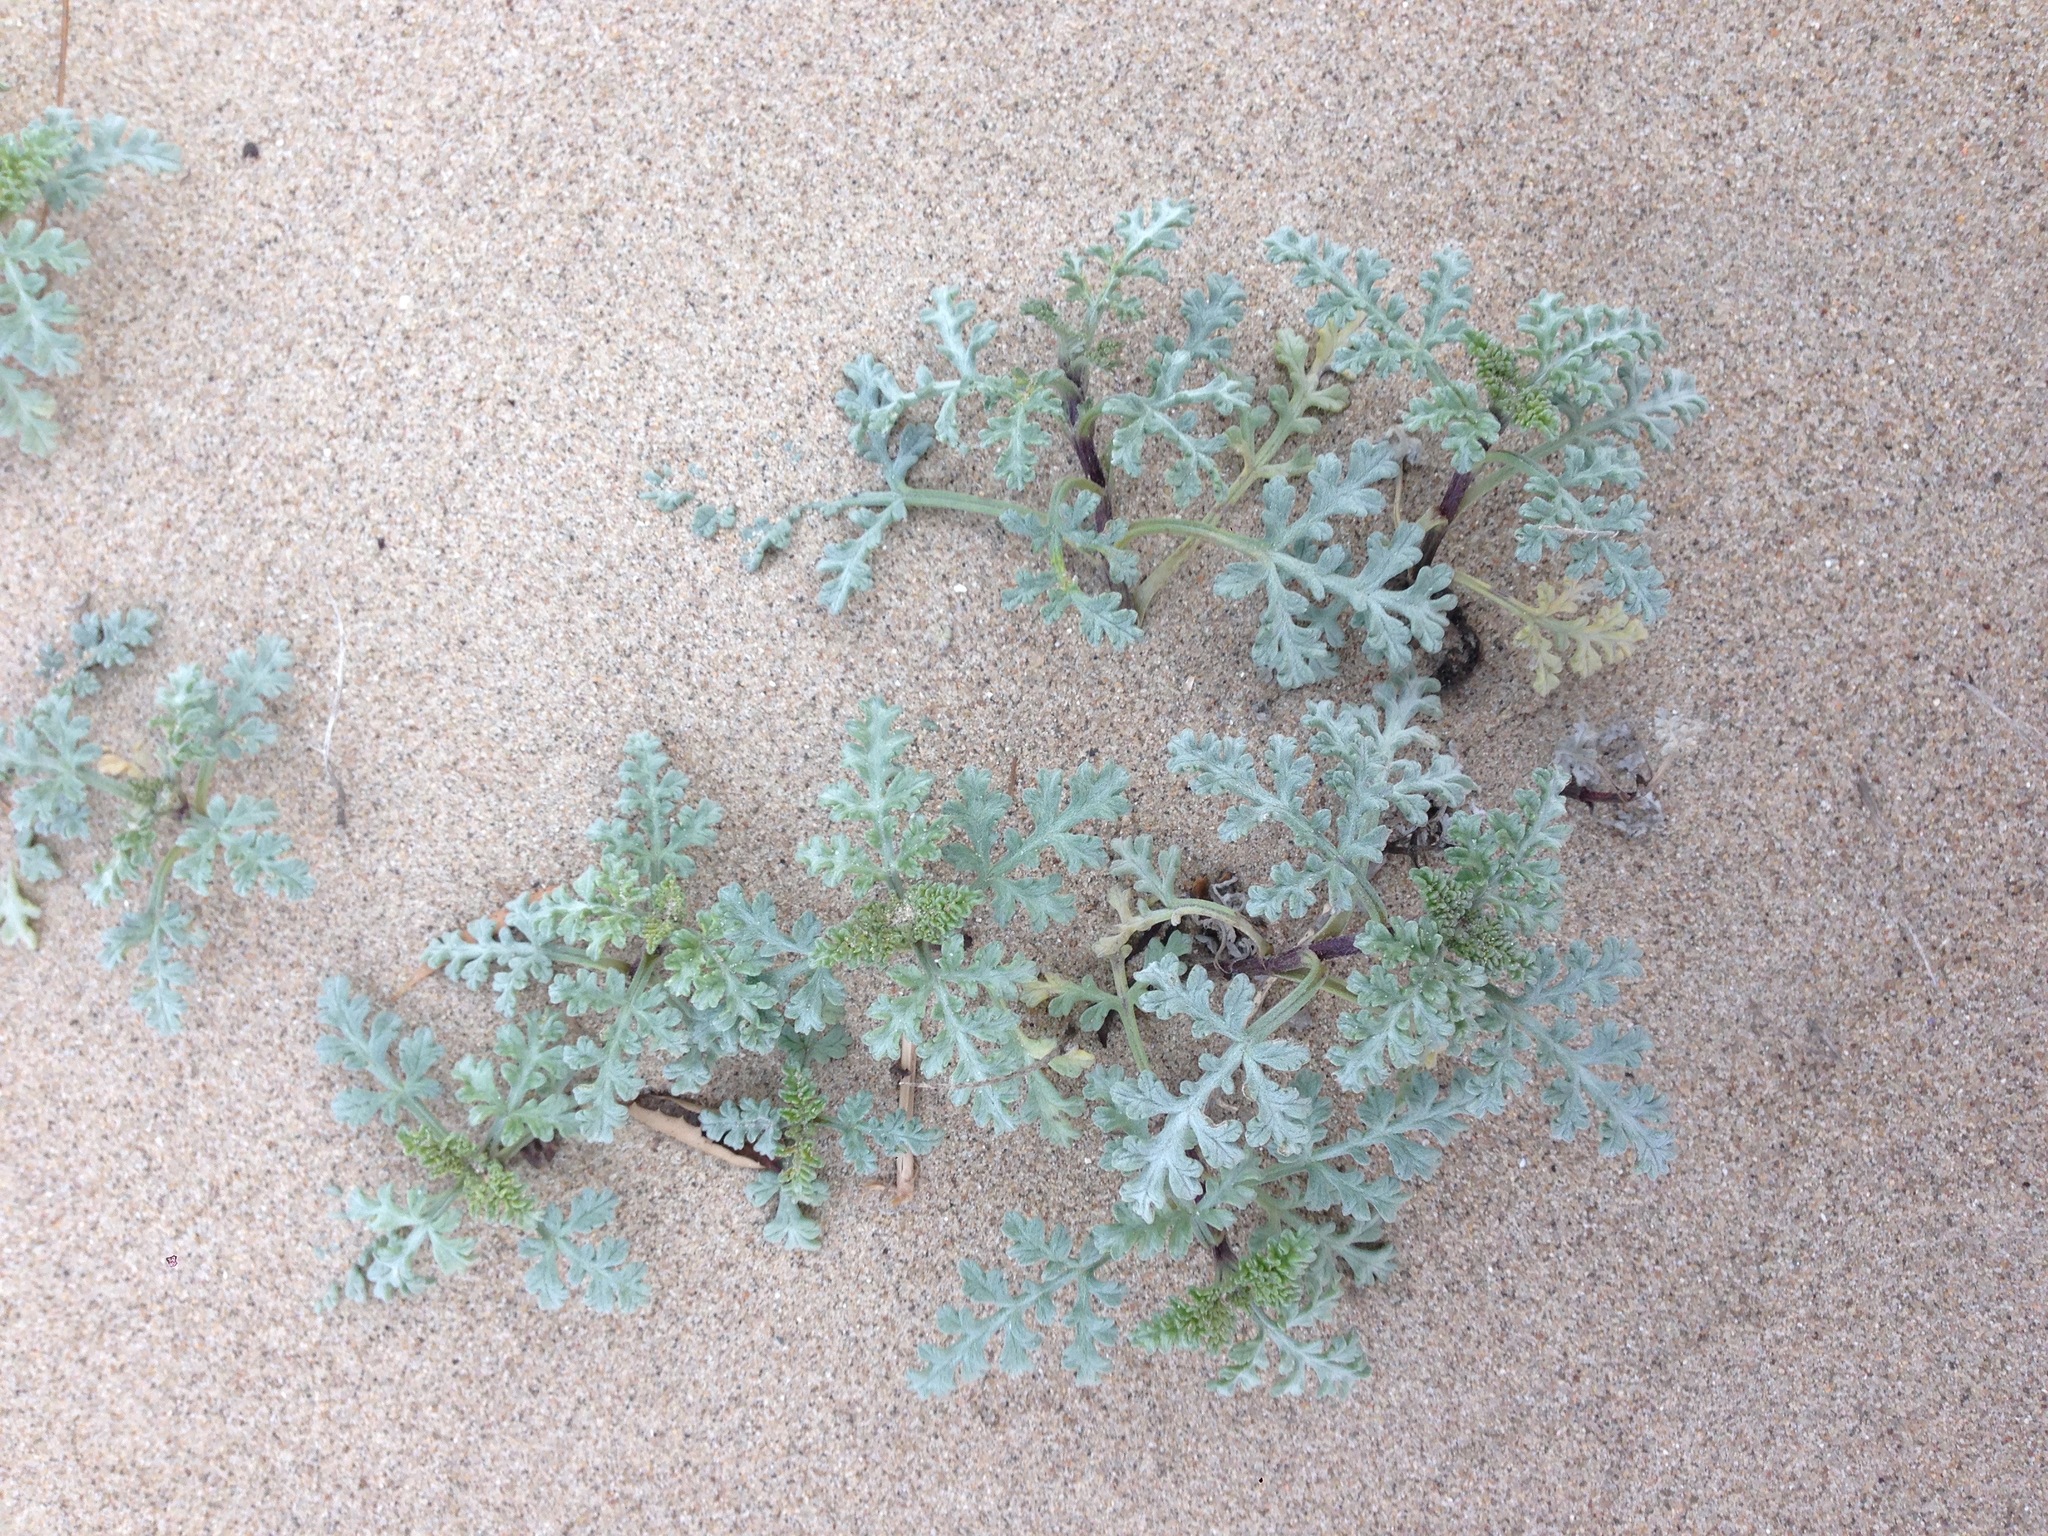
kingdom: Plantae
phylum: Tracheophyta
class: Magnoliopsida
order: Asterales
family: Asteraceae
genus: Ambrosia
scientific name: Ambrosia chamissonis
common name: Beachbur
